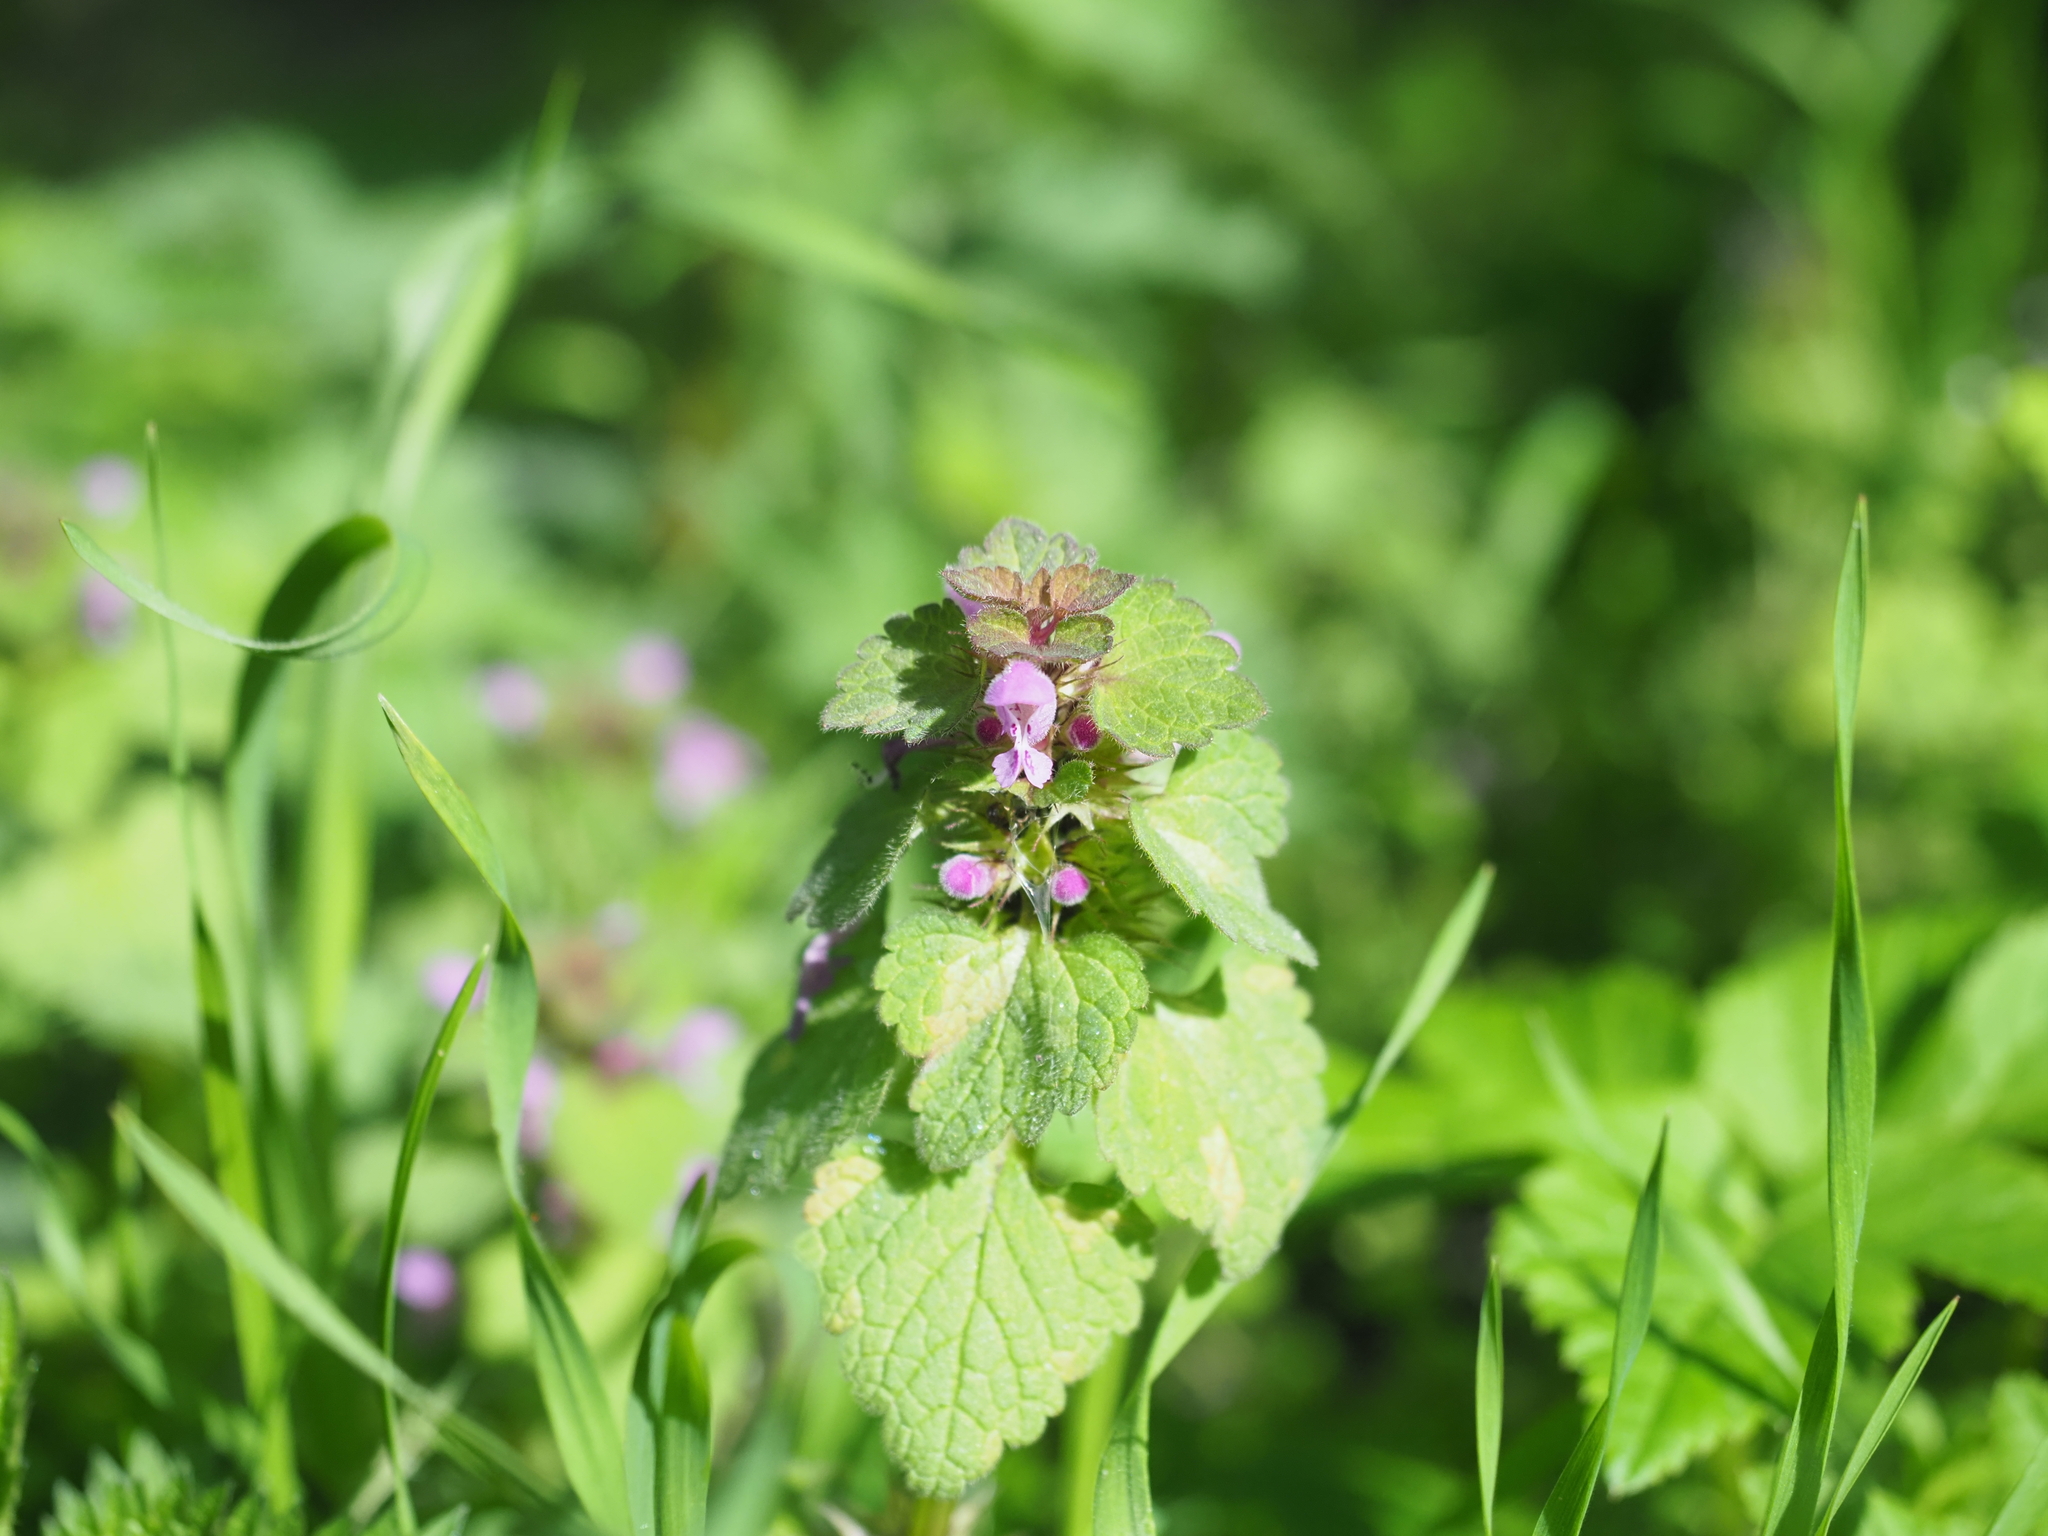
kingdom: Plantae
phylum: Tracheophyta
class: Magnoliopsida
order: Lamiales
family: Lamiaceae
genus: Lamium
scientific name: Lamium purpureum
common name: Red dead-nettle
